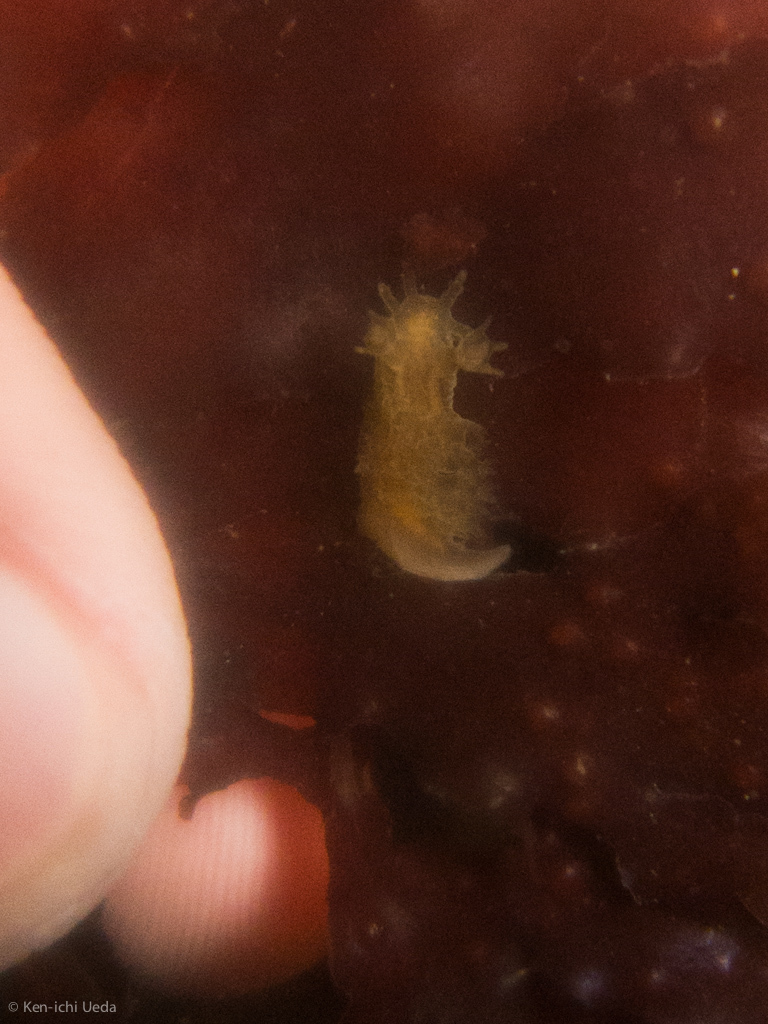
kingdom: Animalia
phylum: Mollusca
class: Gastropoda
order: Nudibranchia
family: Dendronotidae
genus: Dendronotus
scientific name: Dendronotus subramosus
